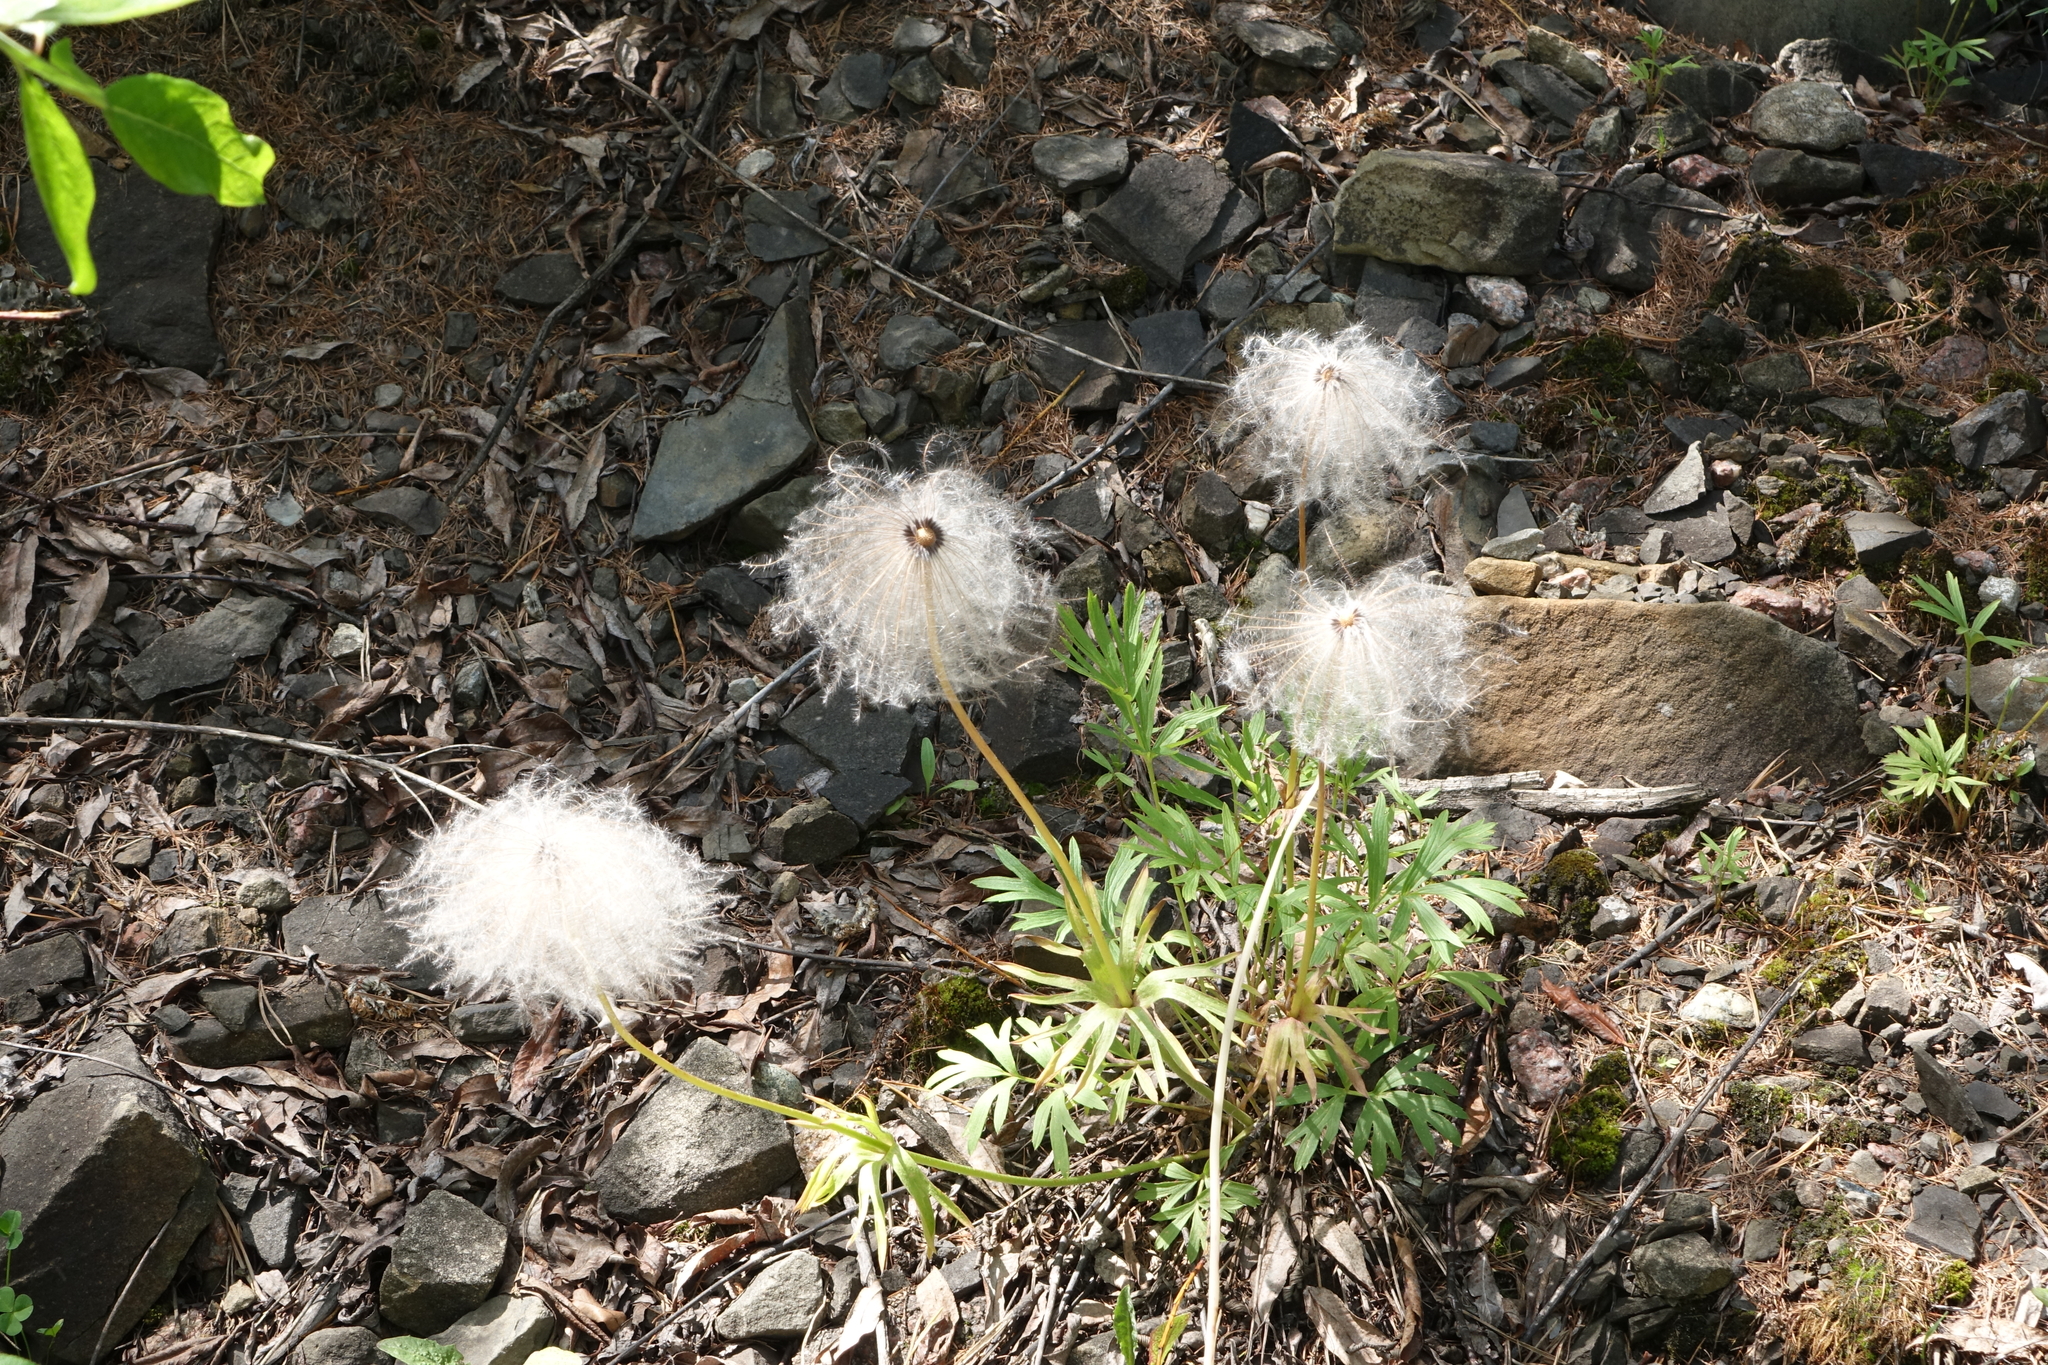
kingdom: Plantae
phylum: Tracheophyta
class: Magnoliopsida
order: Ranunculales
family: Ranunculaceae
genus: Pulsatilla
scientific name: Pulsatilla dahurica
